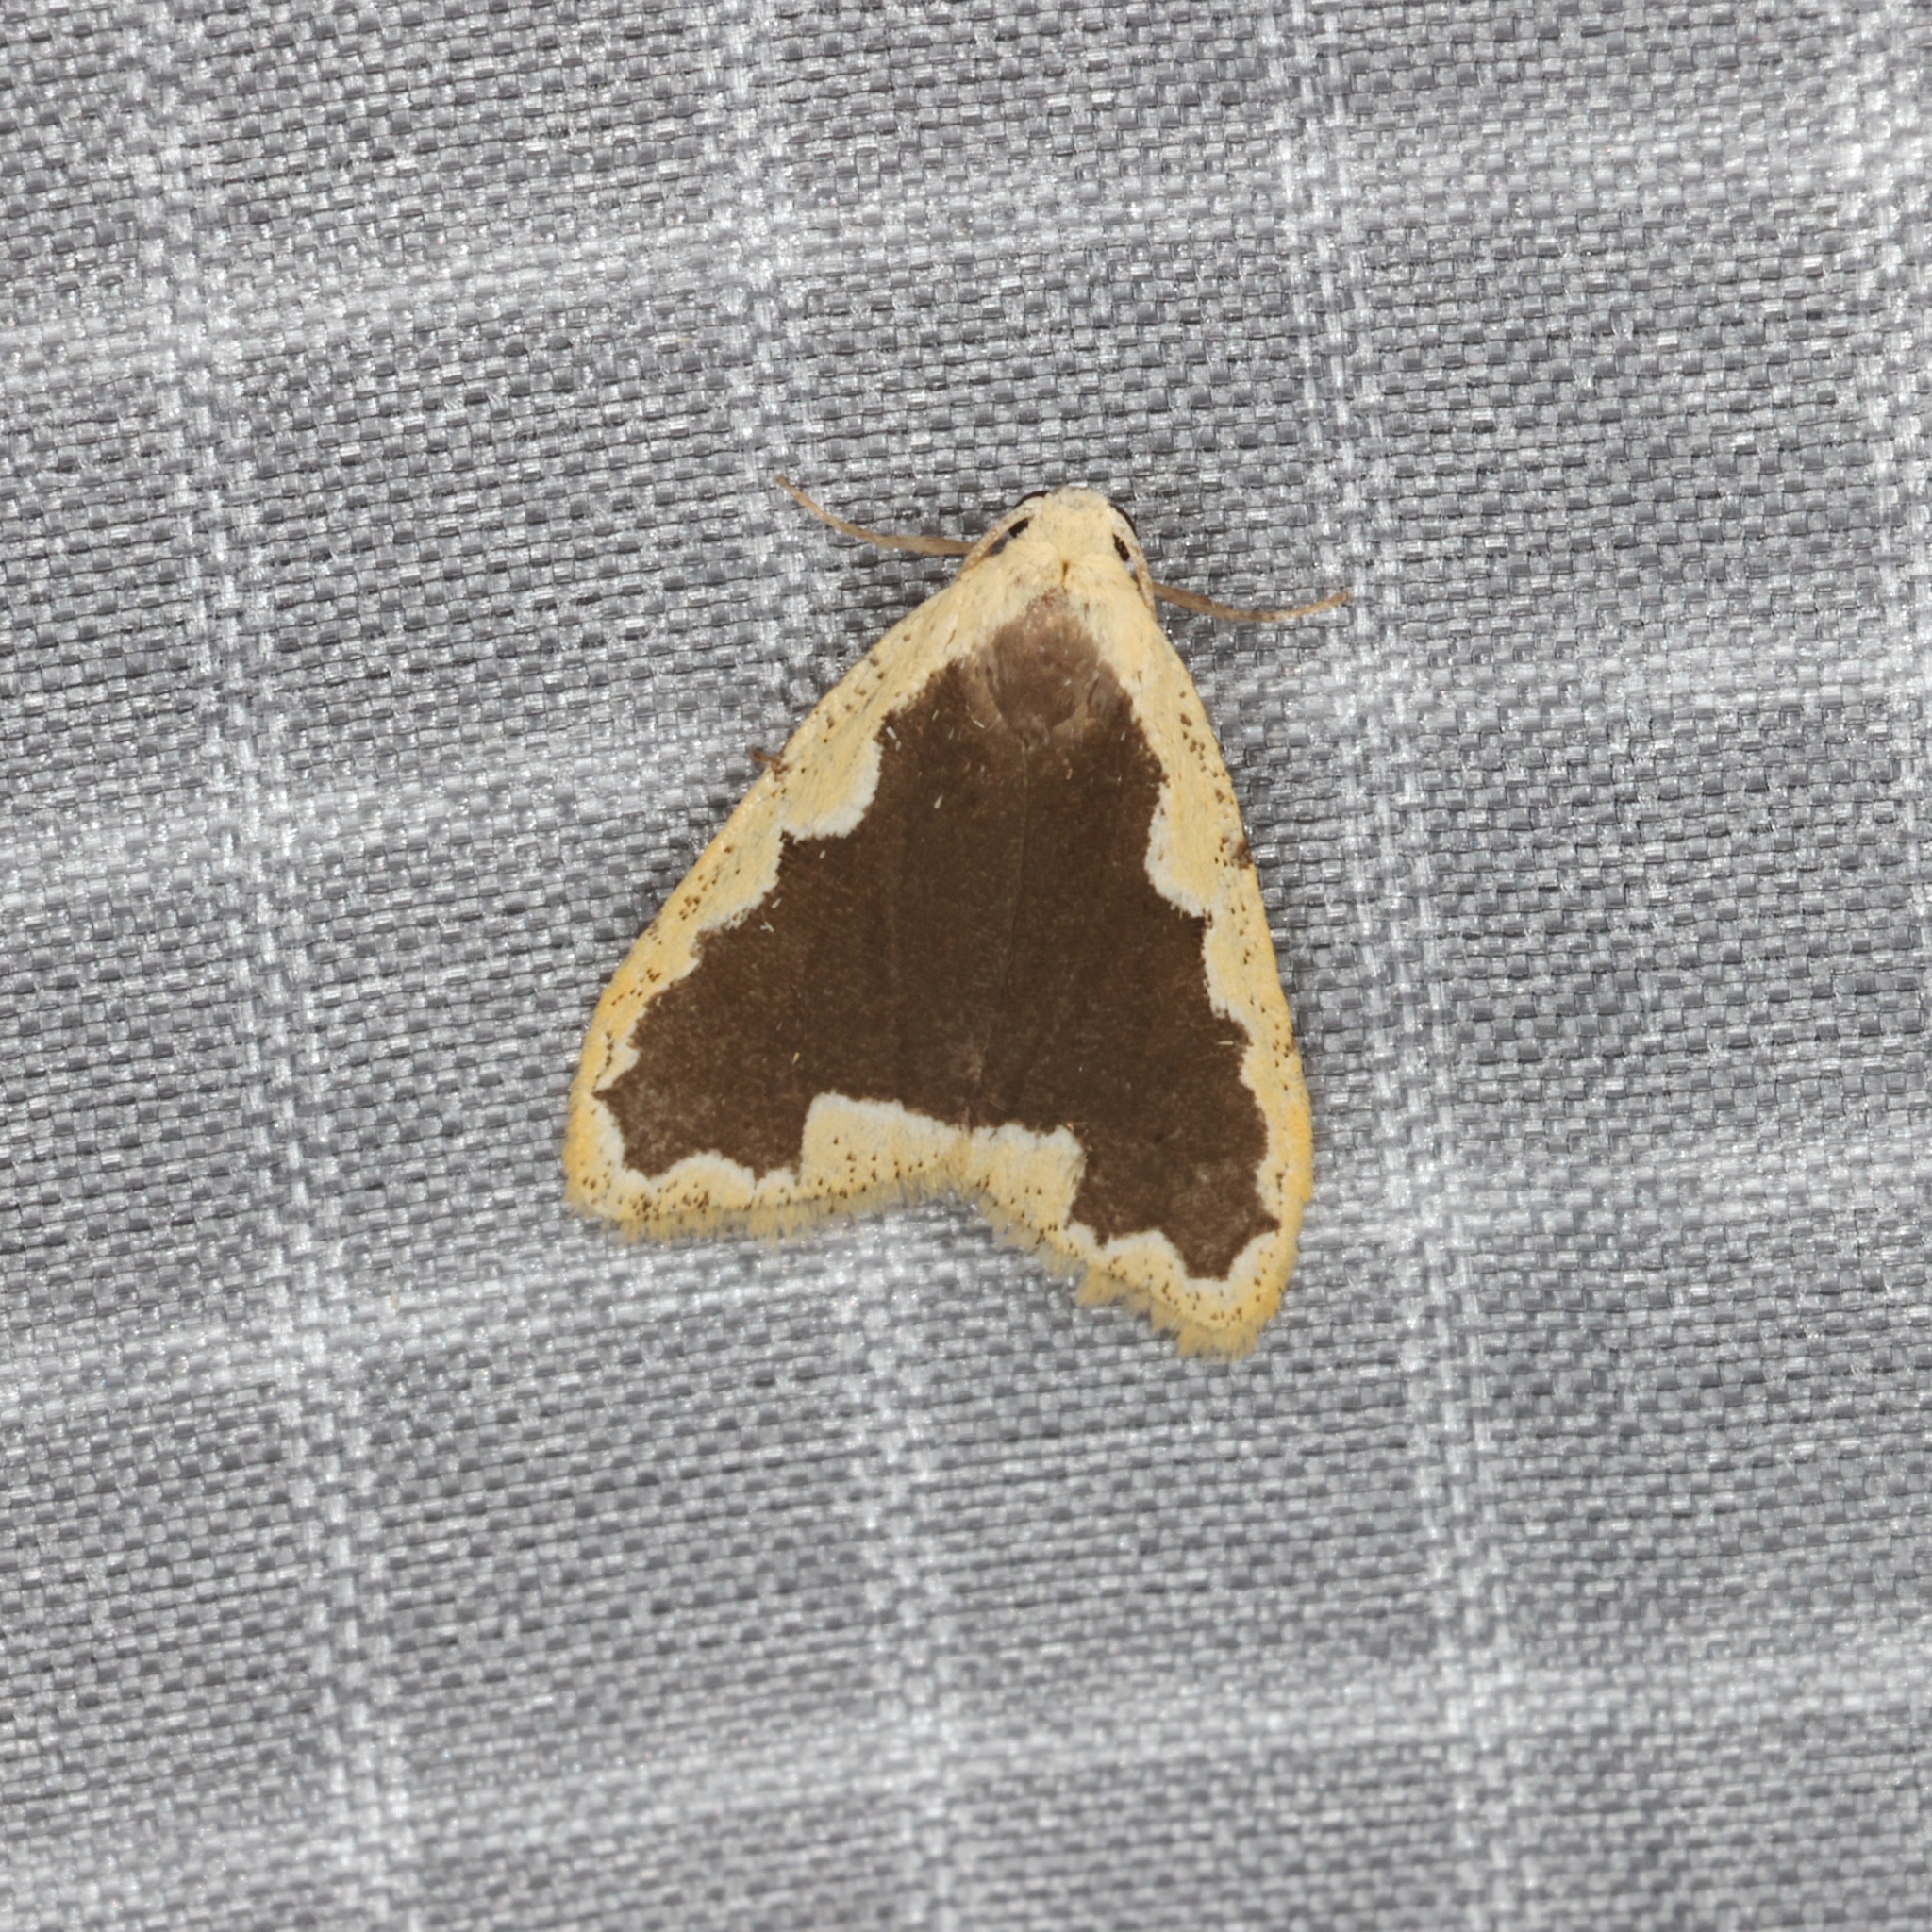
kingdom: Animalia
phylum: Arthropoda
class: Insecta
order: Lepidoptera
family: Erebidae
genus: Diduga
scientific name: Diduga flavicostata
